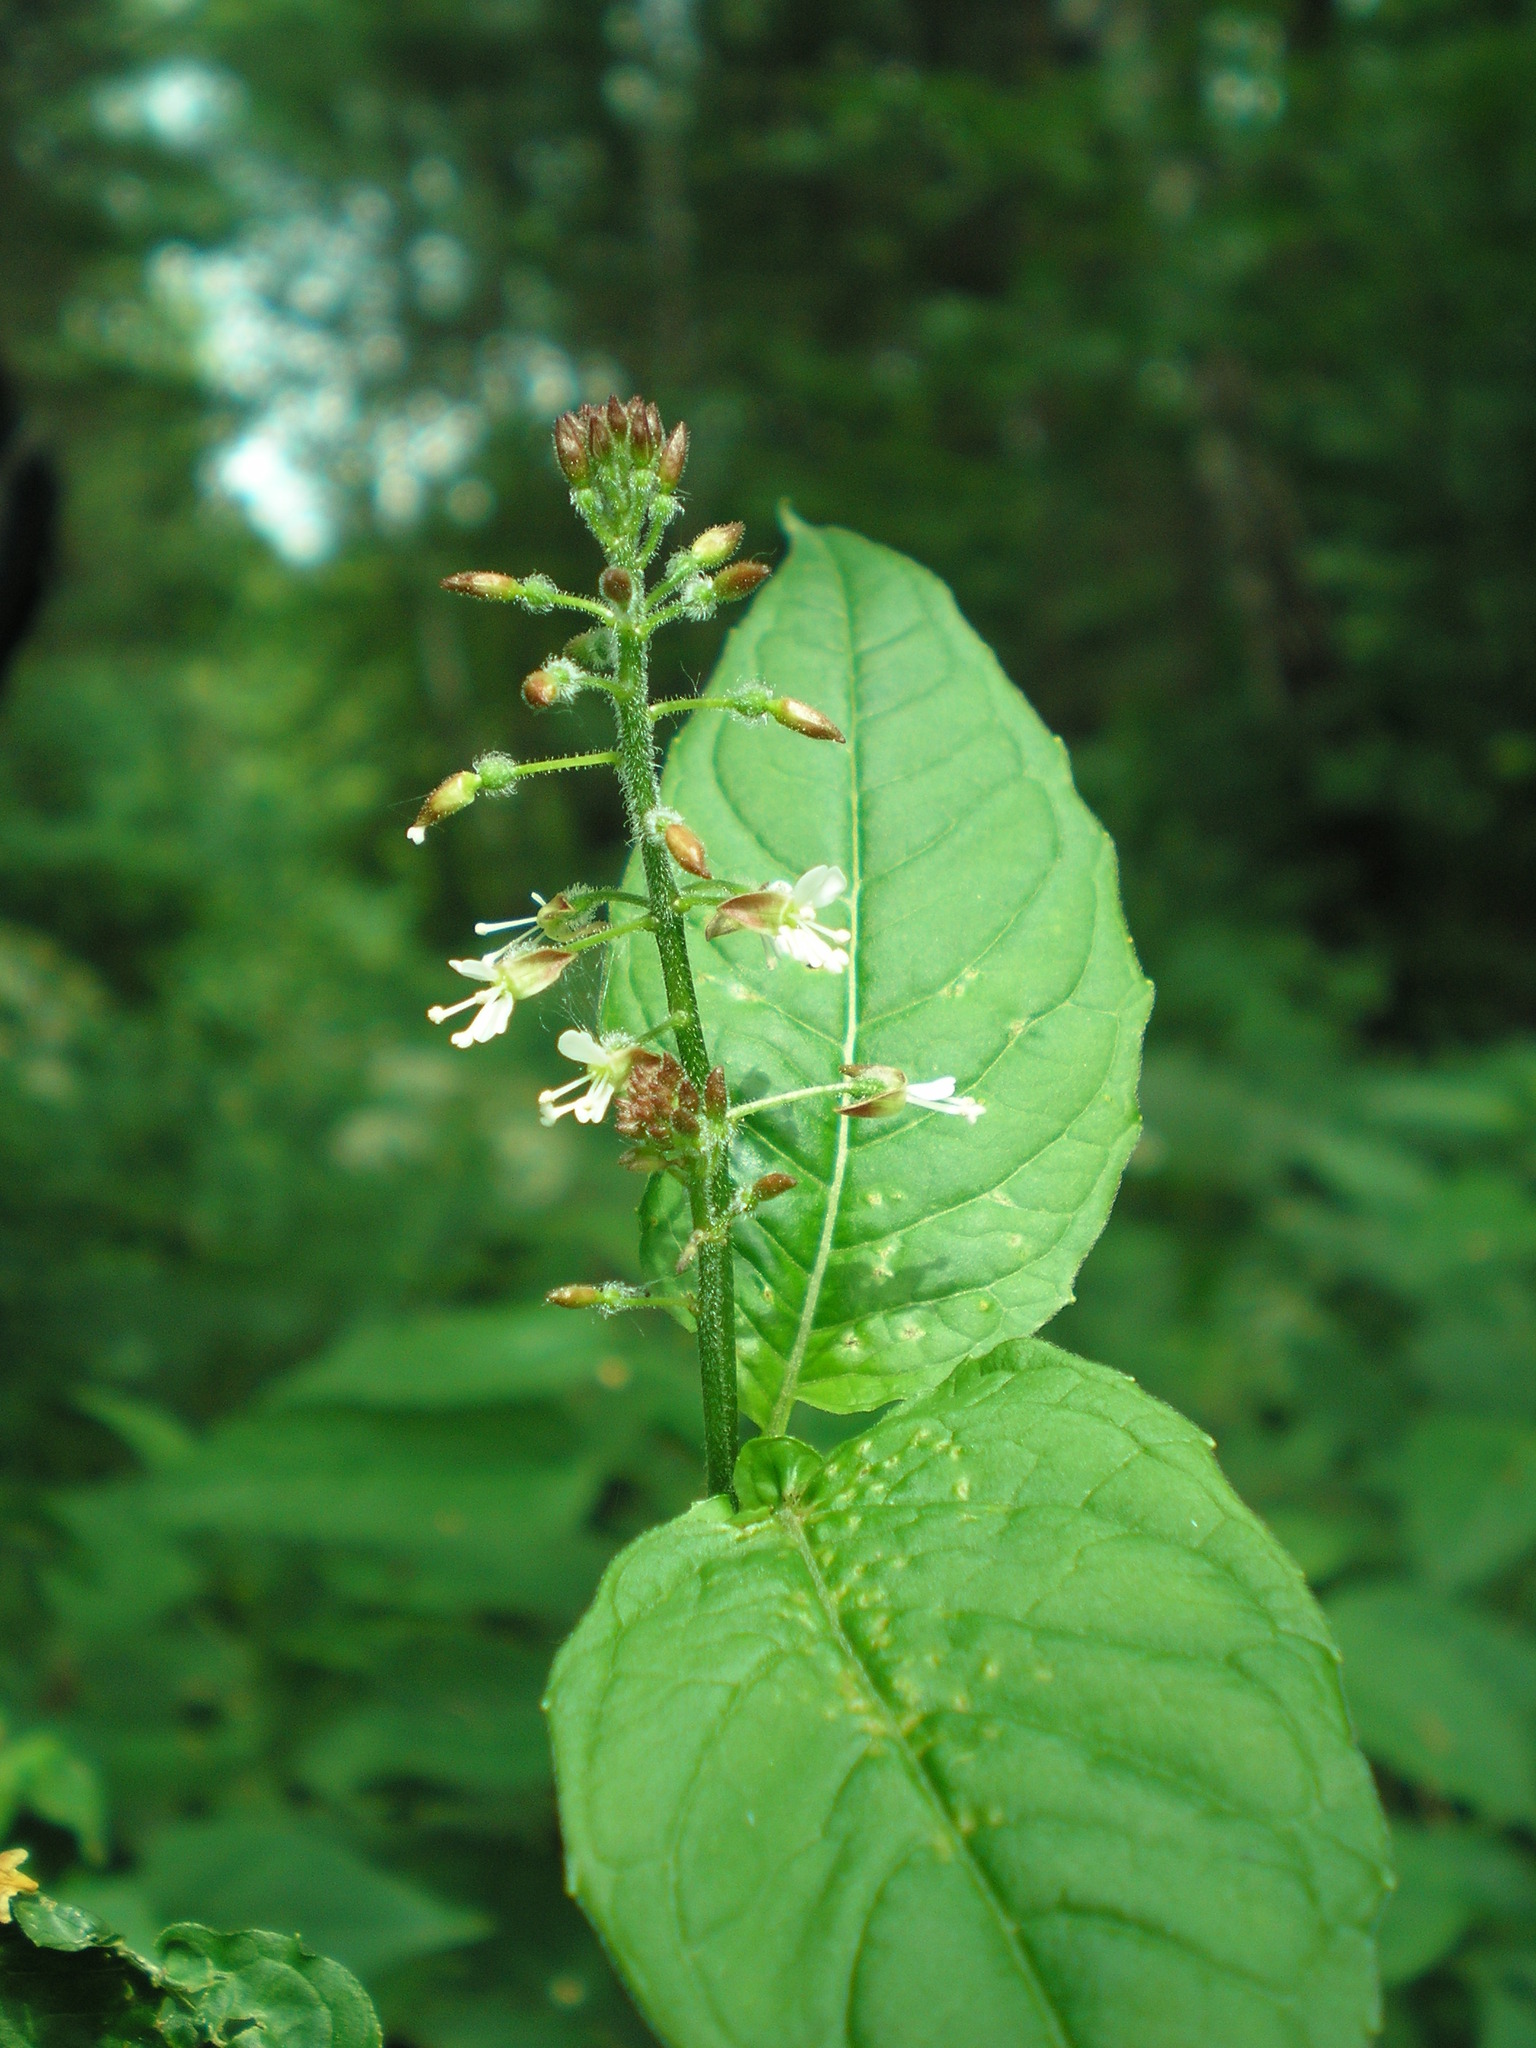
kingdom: Plantae
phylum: Tracheophyta
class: Magnoliopsida
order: Myrtales
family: Onagraceae
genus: Circaea
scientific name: Circaea lutetiana
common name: Enchanter's-nightshade
